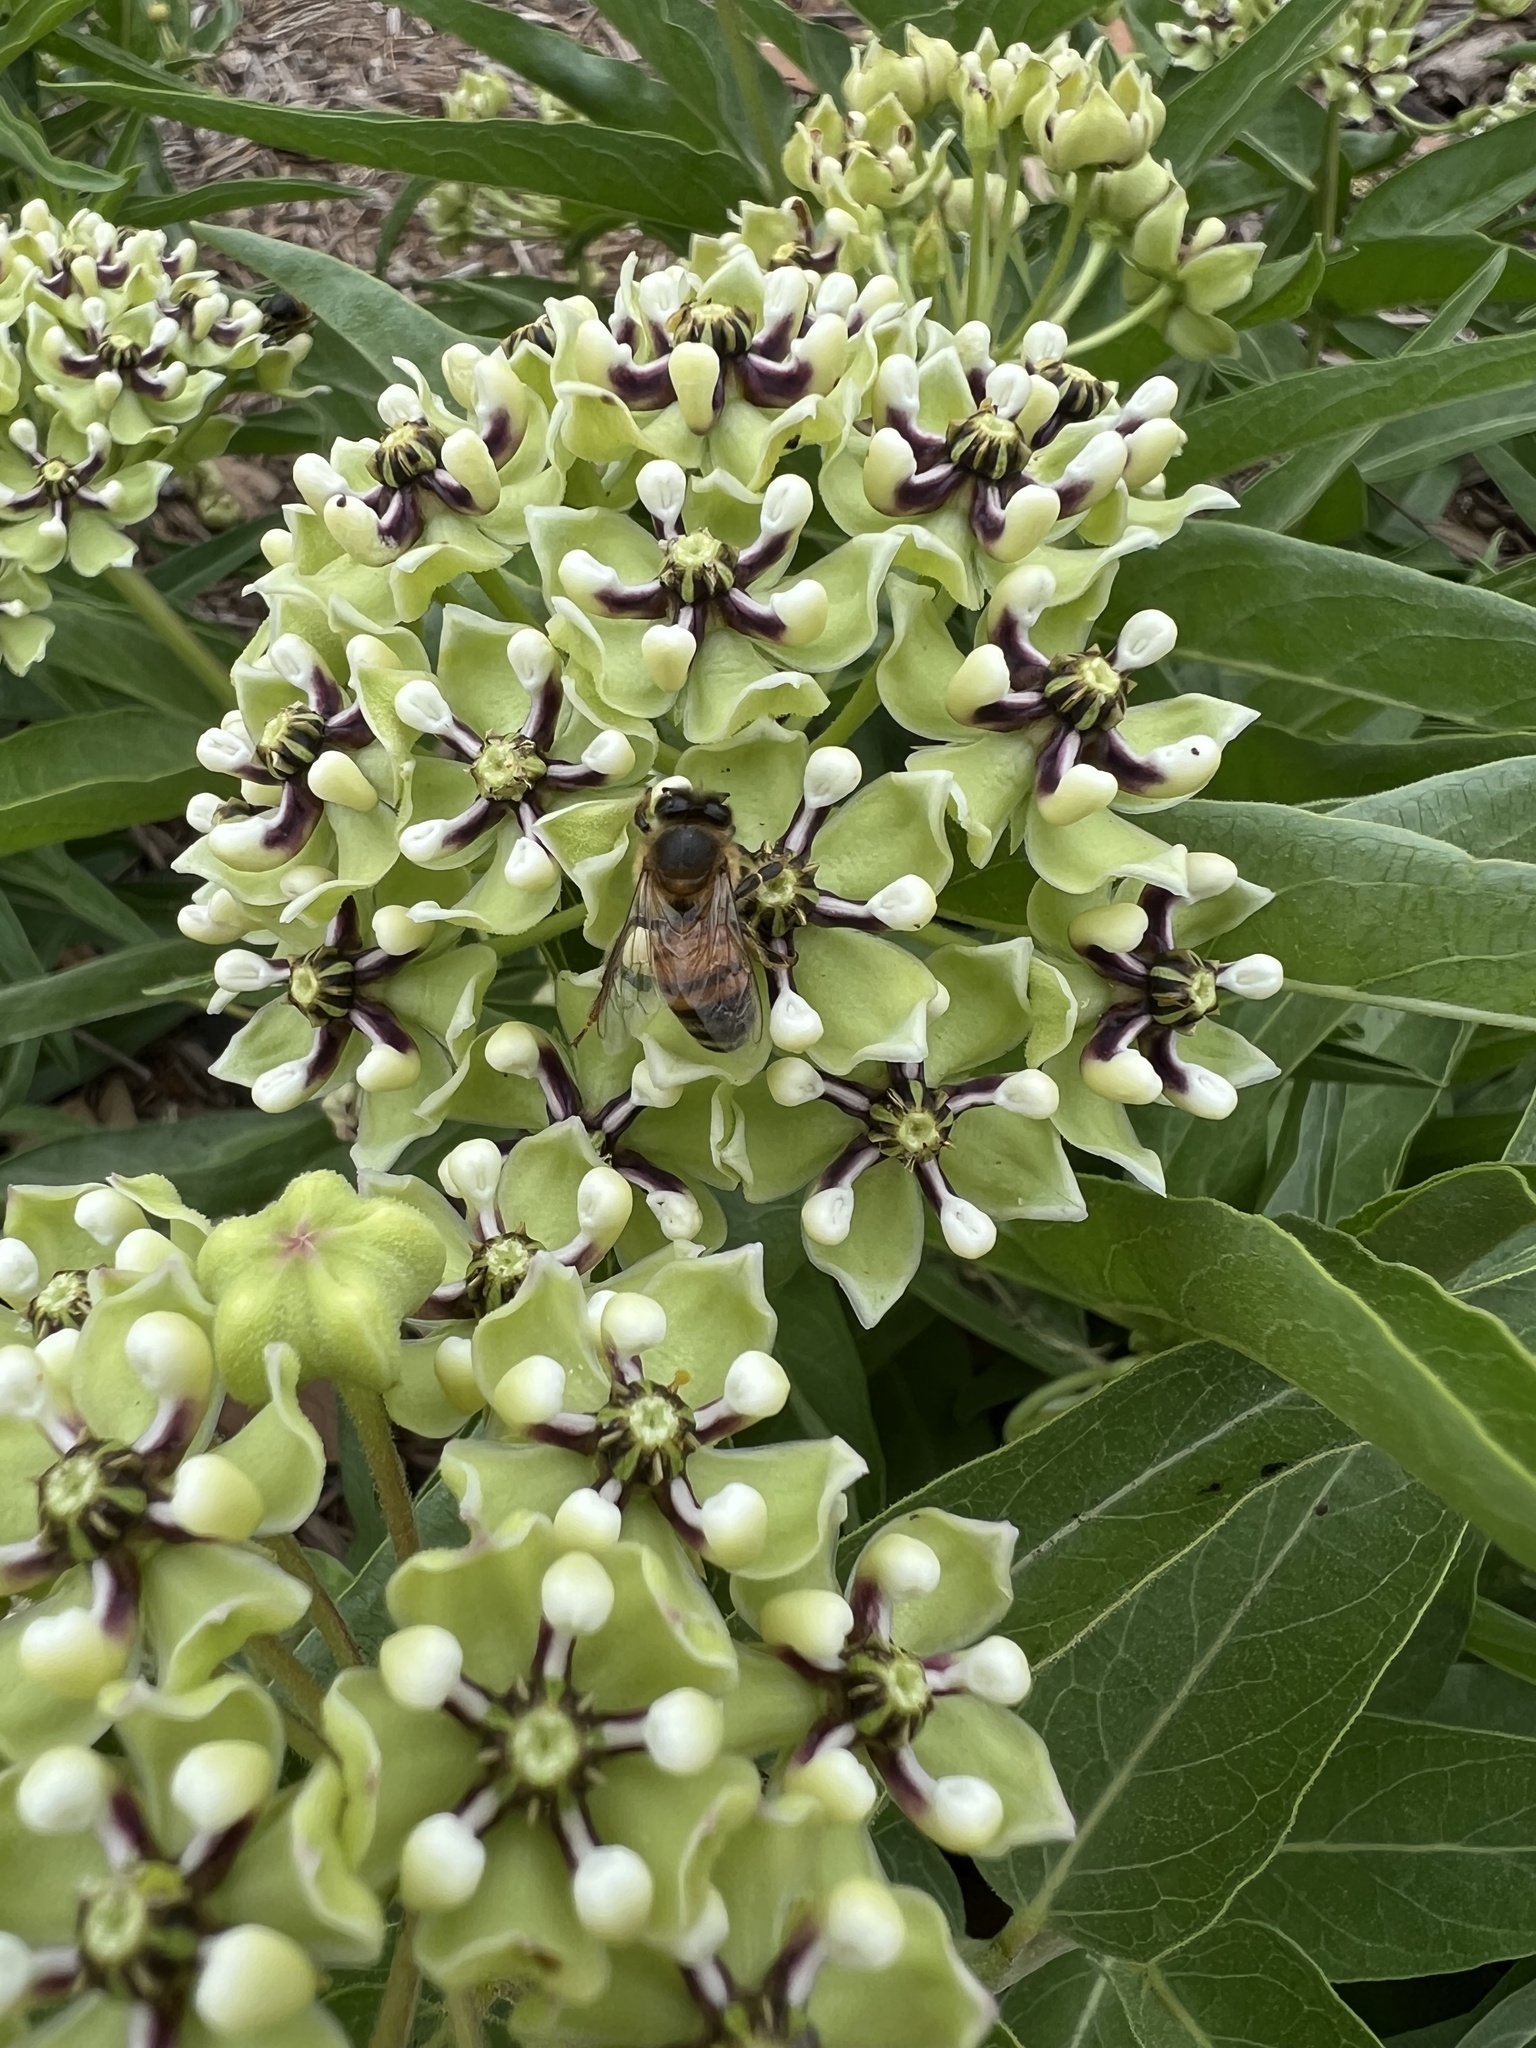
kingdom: Animalia
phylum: Arthropoda
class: Insecta
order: Hymenoptera
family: Apidae
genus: Apis
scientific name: Apis mellifera
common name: Honey bee
